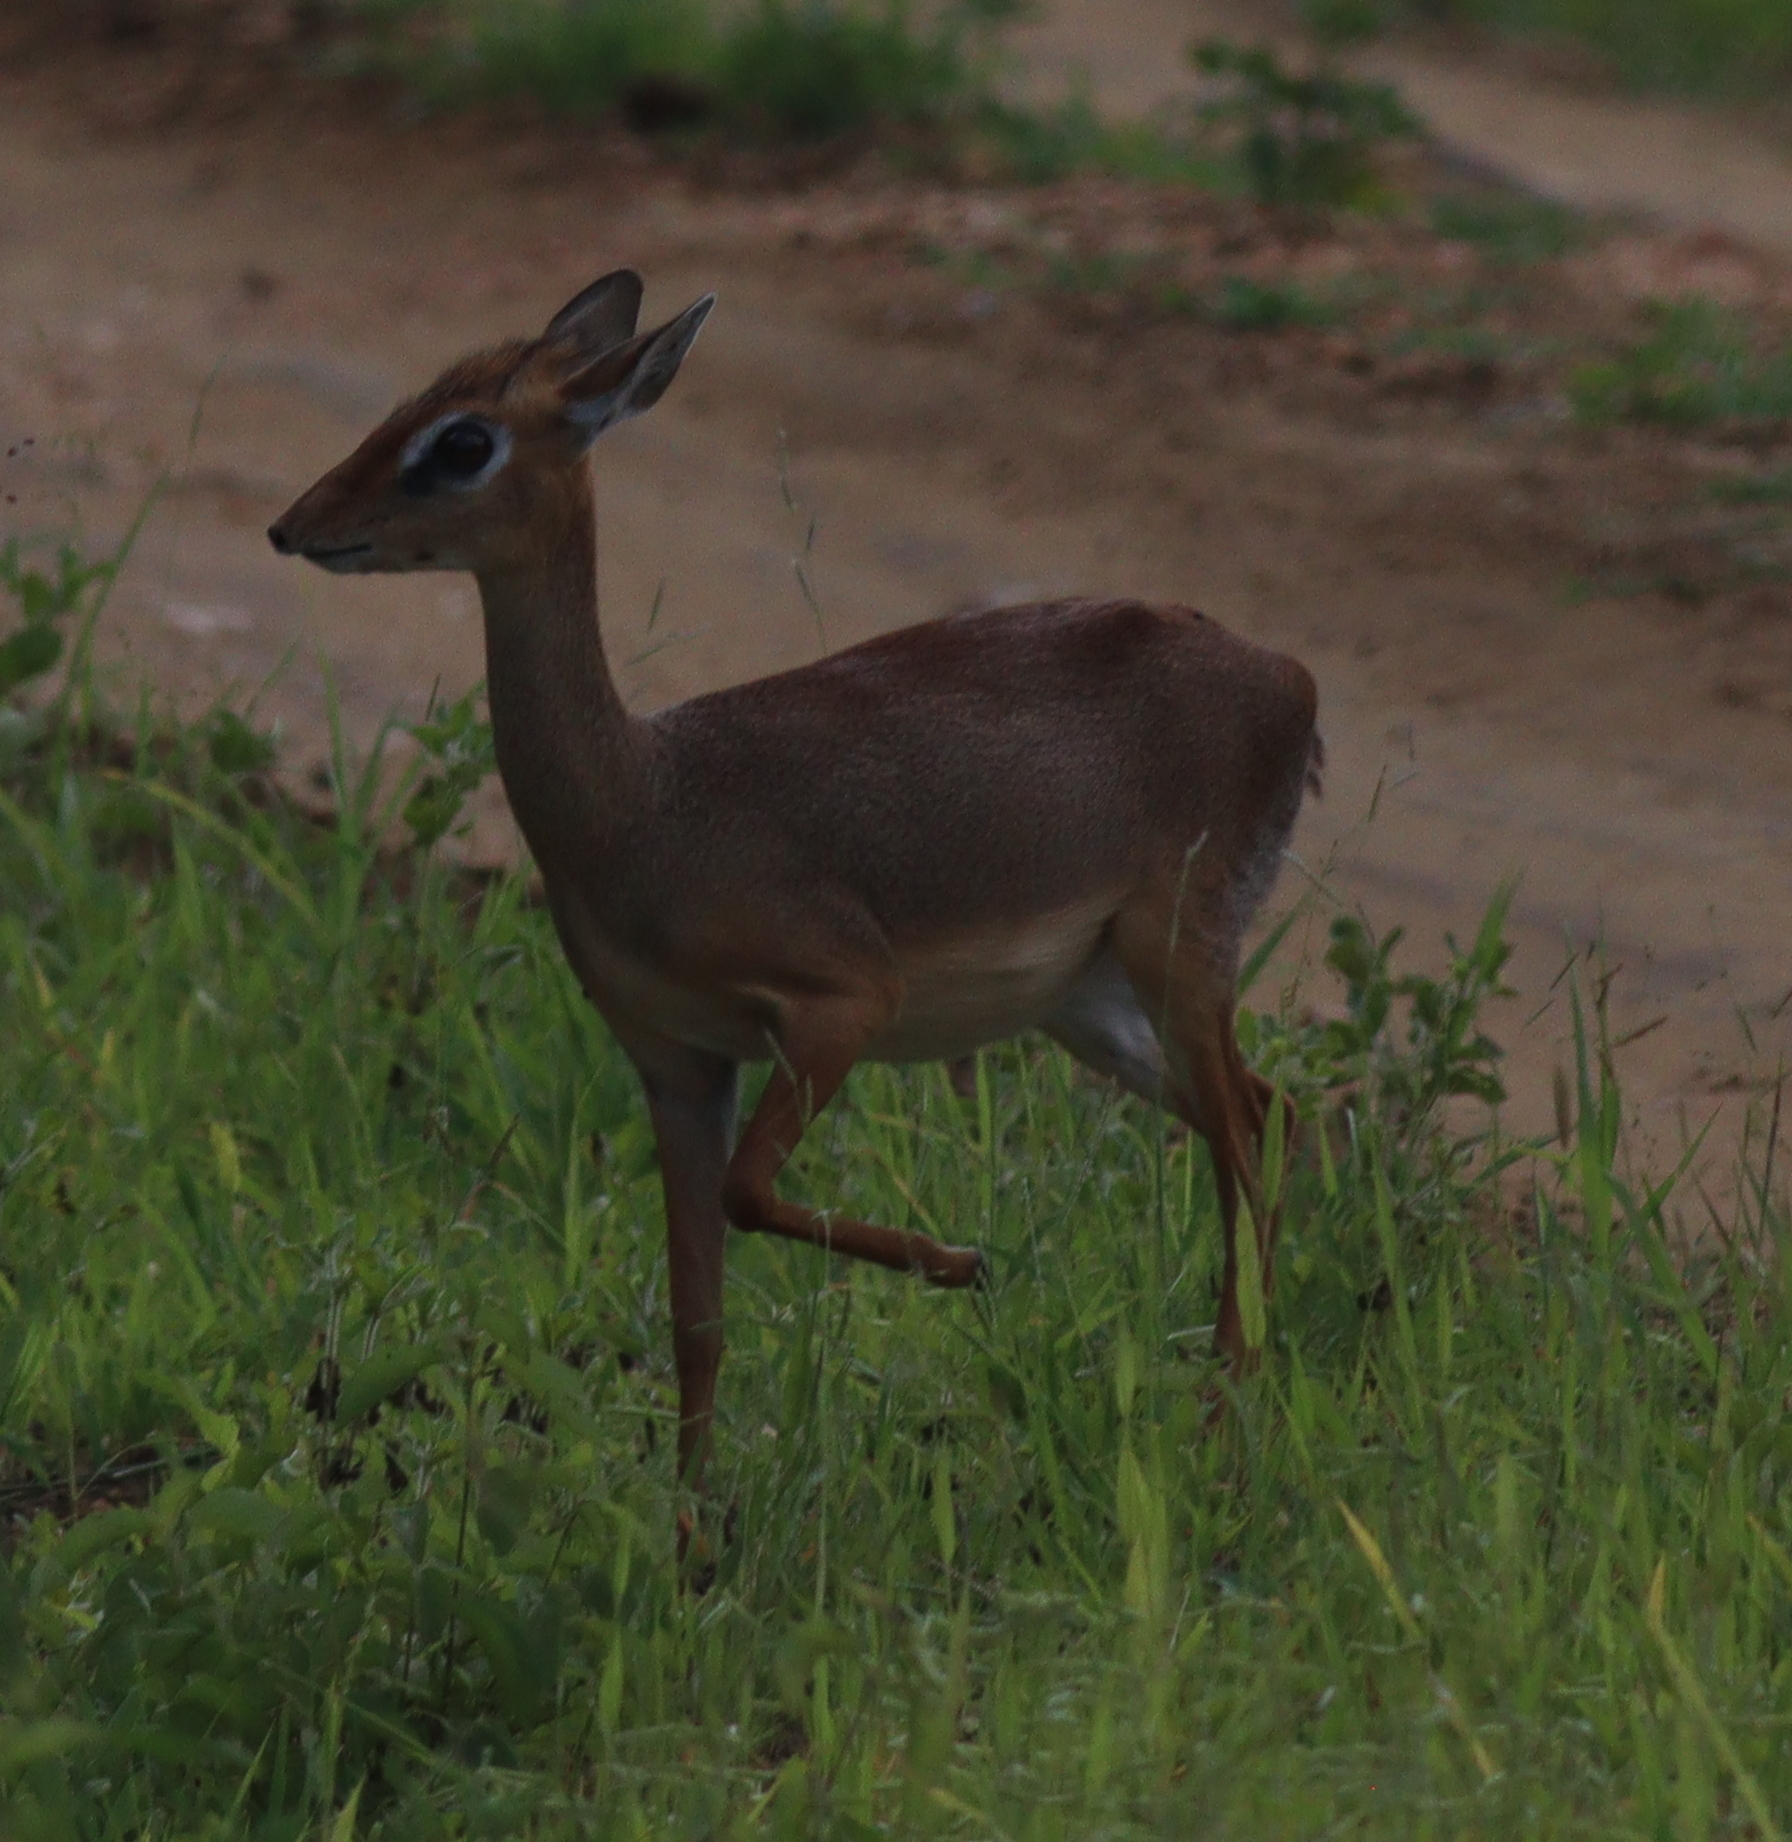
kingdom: Animalia
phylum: Chordata
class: Mammalia
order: Artiodactyla
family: Bovidae
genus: Madoqua
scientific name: Madoqua
